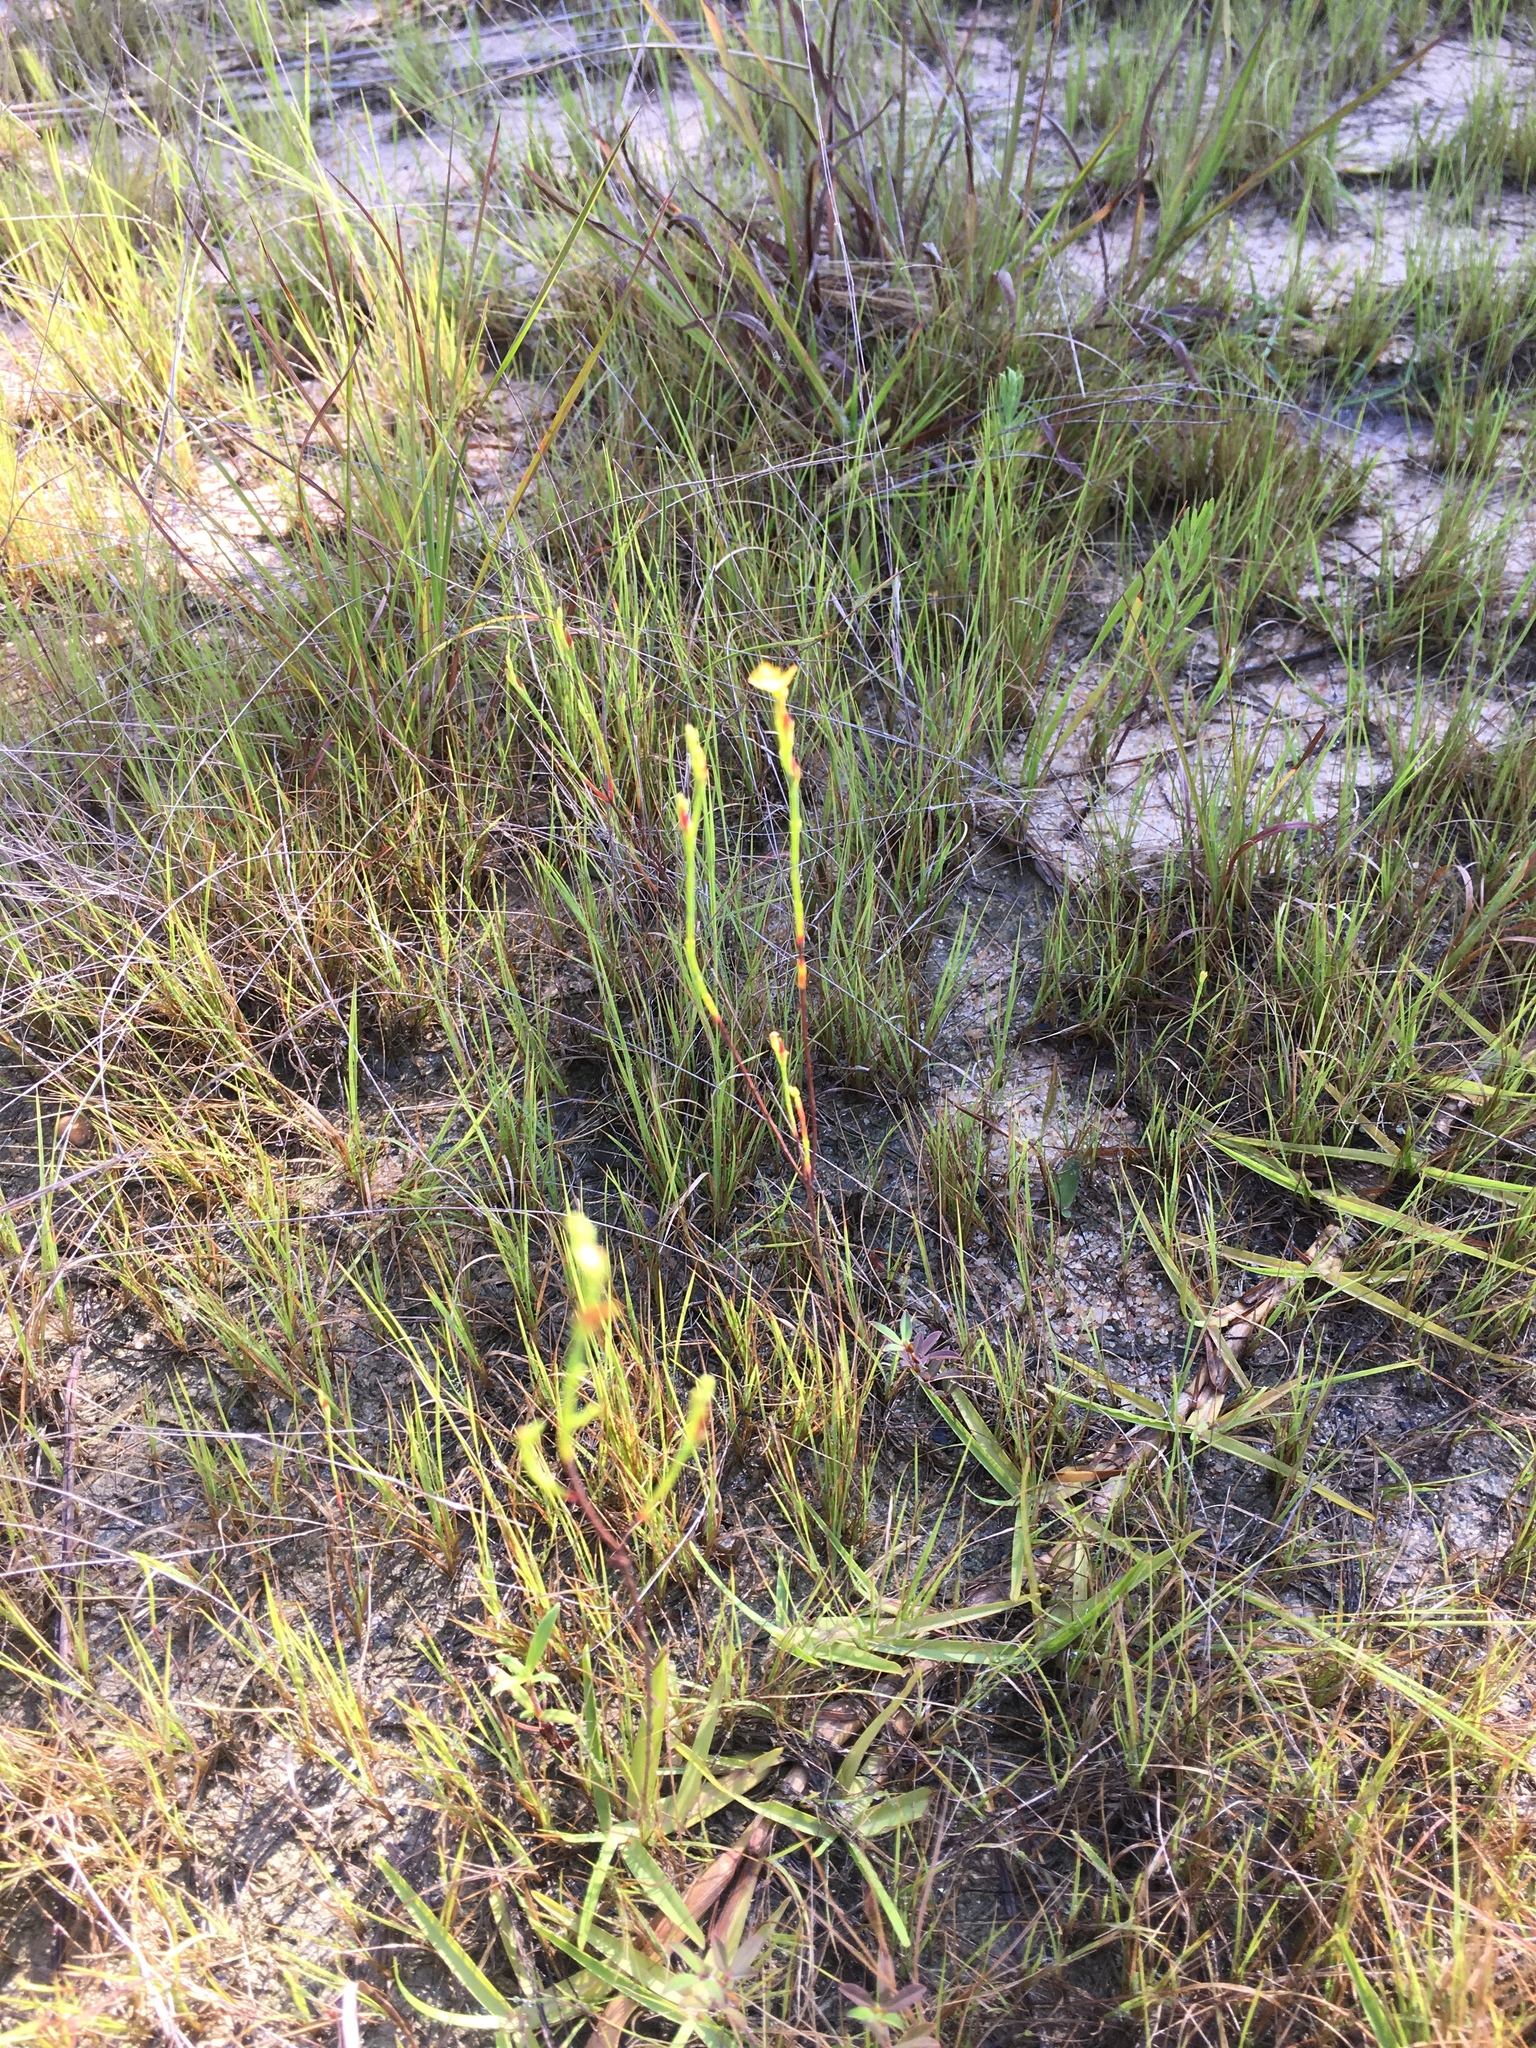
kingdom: Plantae
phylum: Tracheophyta
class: Magnoliopsida
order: Malpighiales
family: Hypericaceae
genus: Hypericum
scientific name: Hypericum gentianoides
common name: Gentian-leaved st. john's-wort
